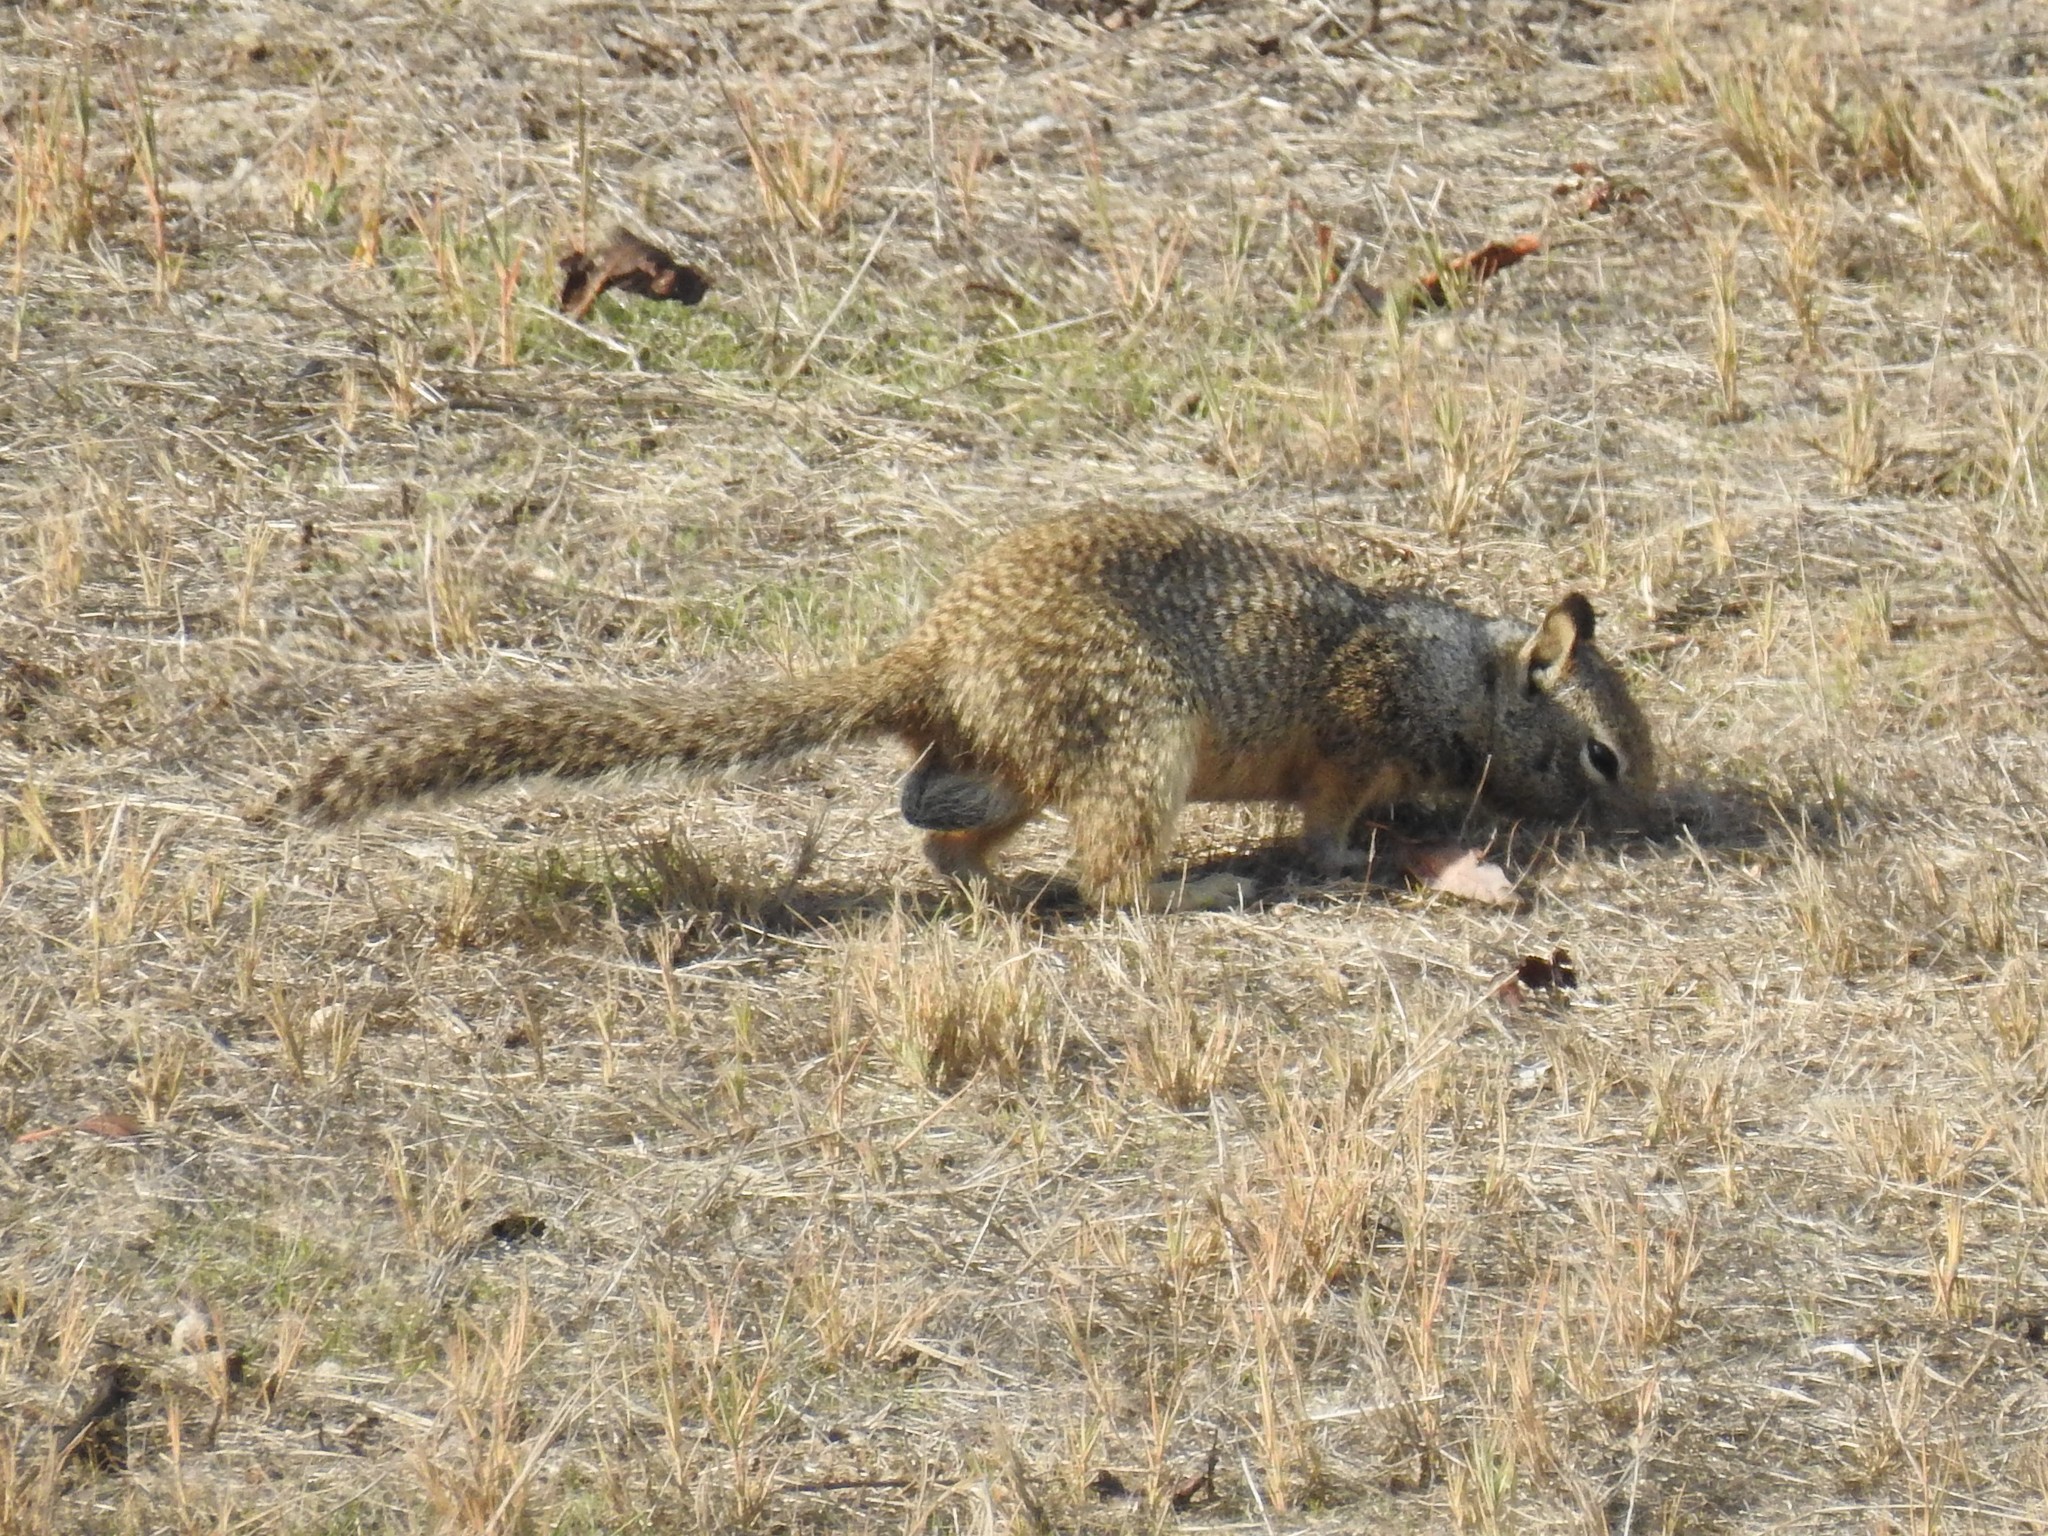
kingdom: Animalia
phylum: Chordata
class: Mammalia
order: Rodentia
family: Sciuridae
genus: Otospermophilus
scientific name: Otospermophilus beecheyi
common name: California ground squirrel
